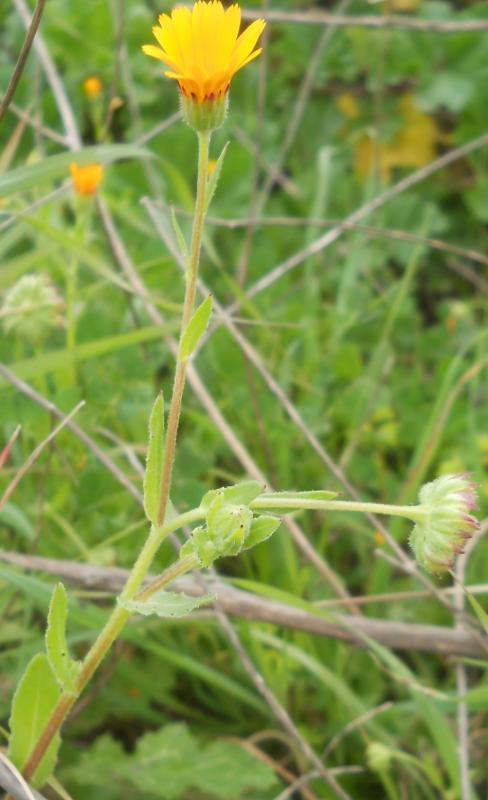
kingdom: Plantae
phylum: Tracheophyta
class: Magnoliopsida
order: Asterales
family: Asteraceae
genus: Calendula
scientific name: Calendula arvensis
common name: Field marigold
